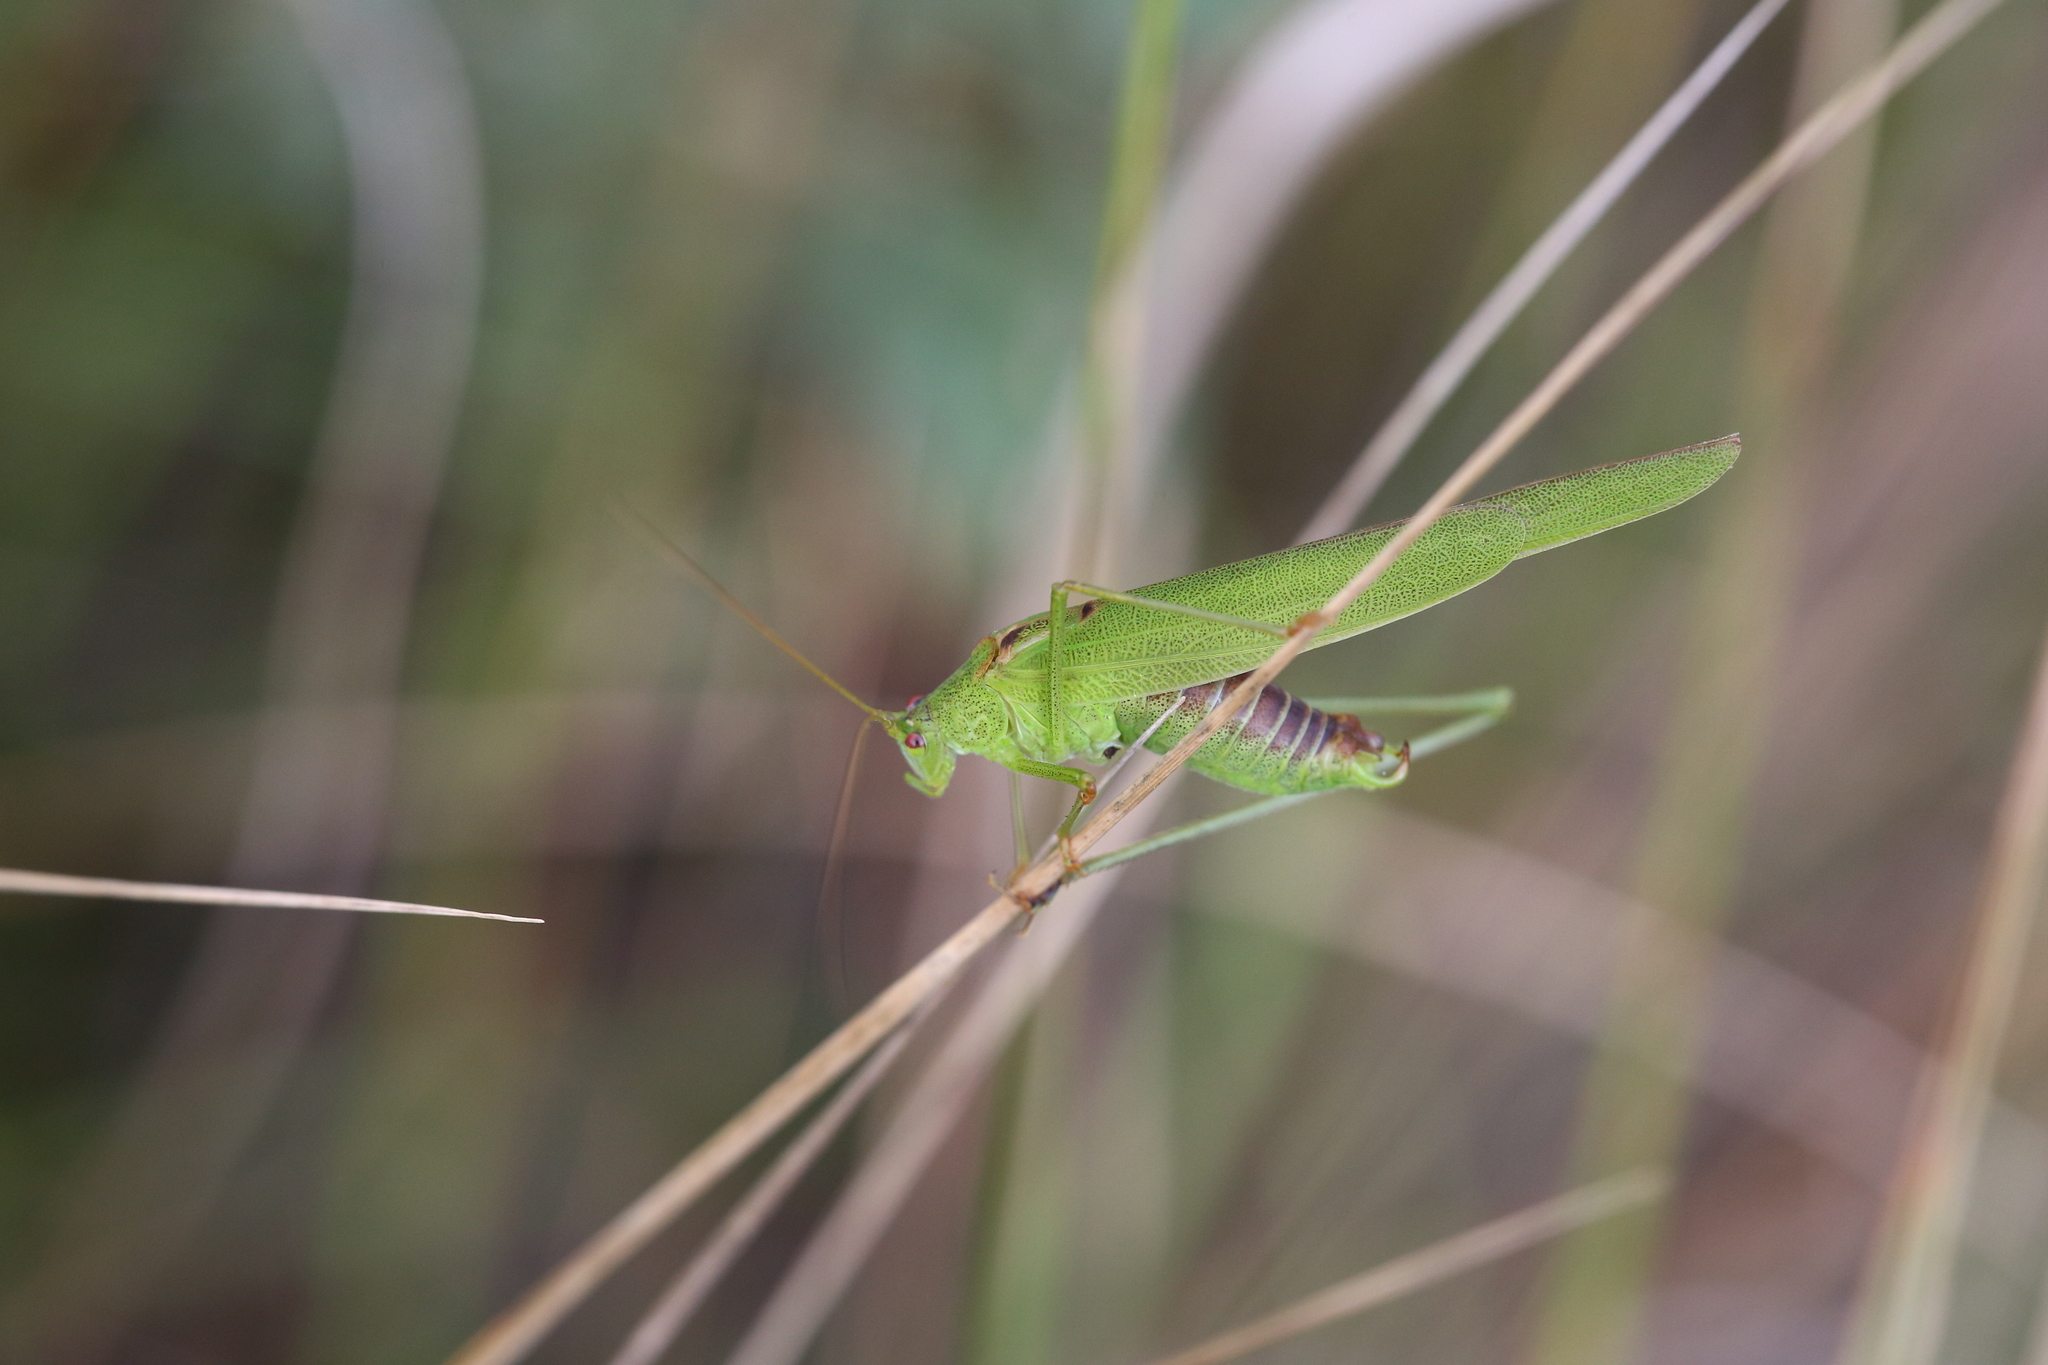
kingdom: Animalia
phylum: Arthropoda
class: Insecta
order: Orthoptera
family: Tettigoniidae
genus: Phaneroptera
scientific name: Phaneroptera falcata
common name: Sickle-bearing bush-cricket
